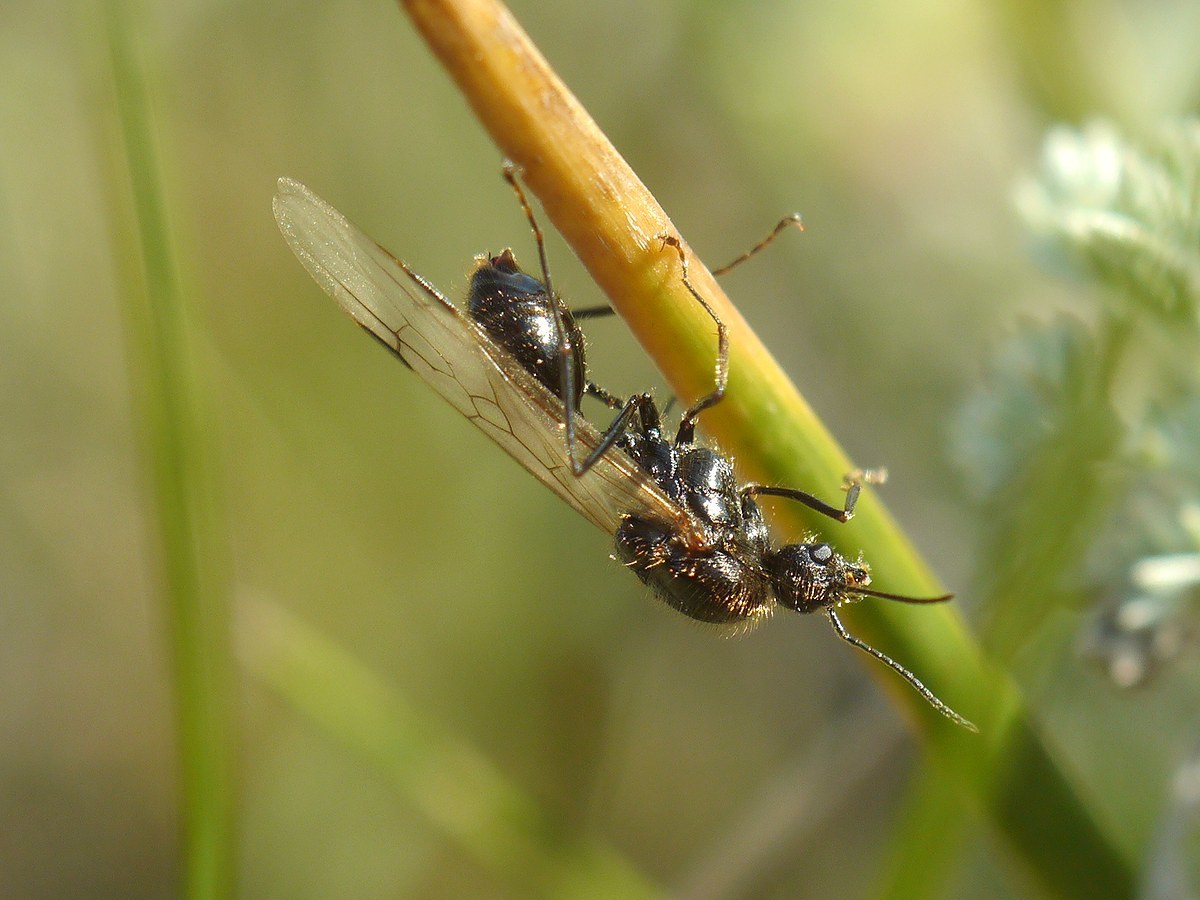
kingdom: Animalia
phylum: Arthropoda
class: Insecta
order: Hymenoptera
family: Formicidae
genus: Messor
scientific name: Messor structor
